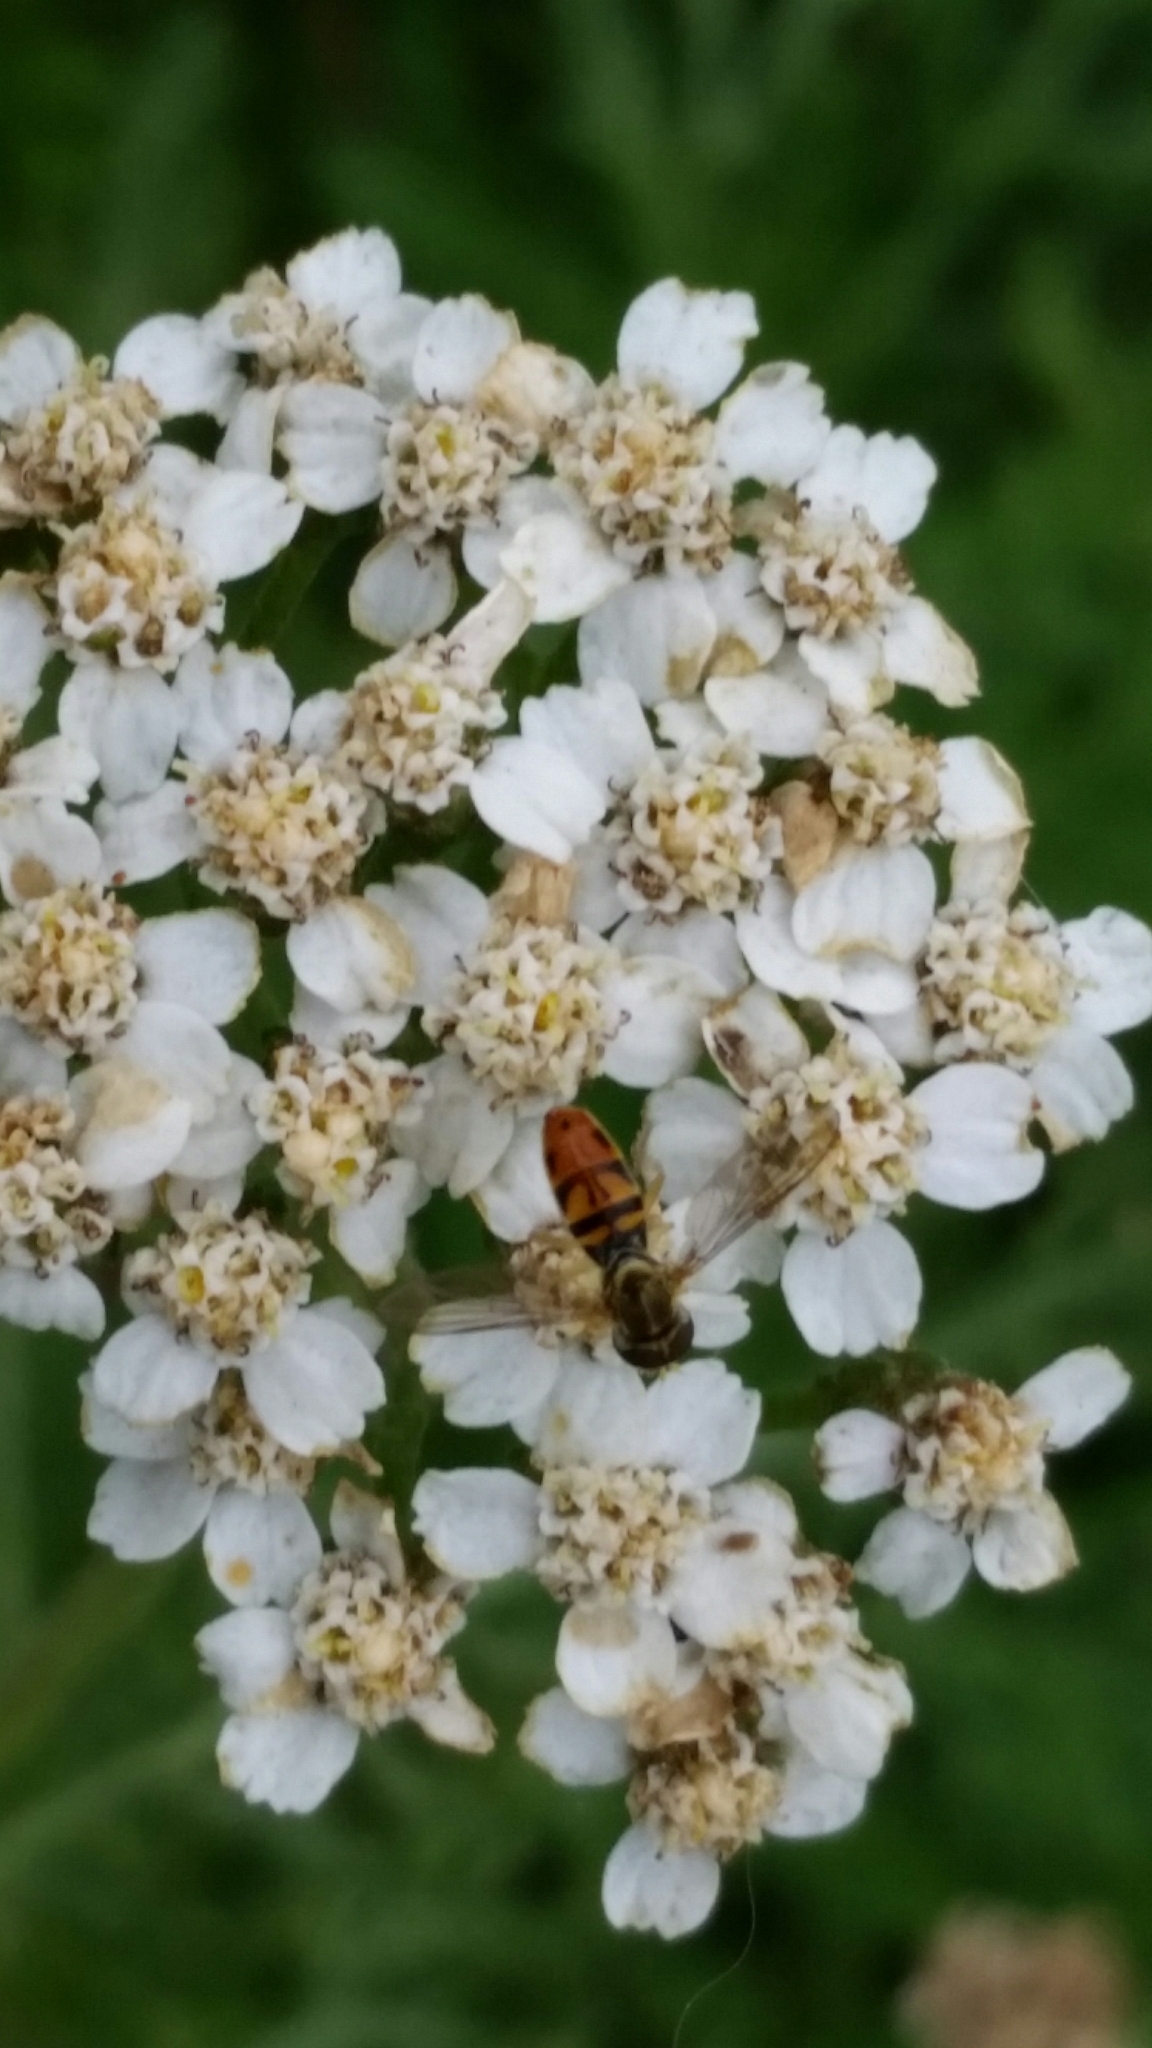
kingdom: Animalia
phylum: Arthropoda
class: Insecta
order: Diptera
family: Syrphidae
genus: Toxomerus
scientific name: Toxomerus marginatus
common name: Syrphid fly
